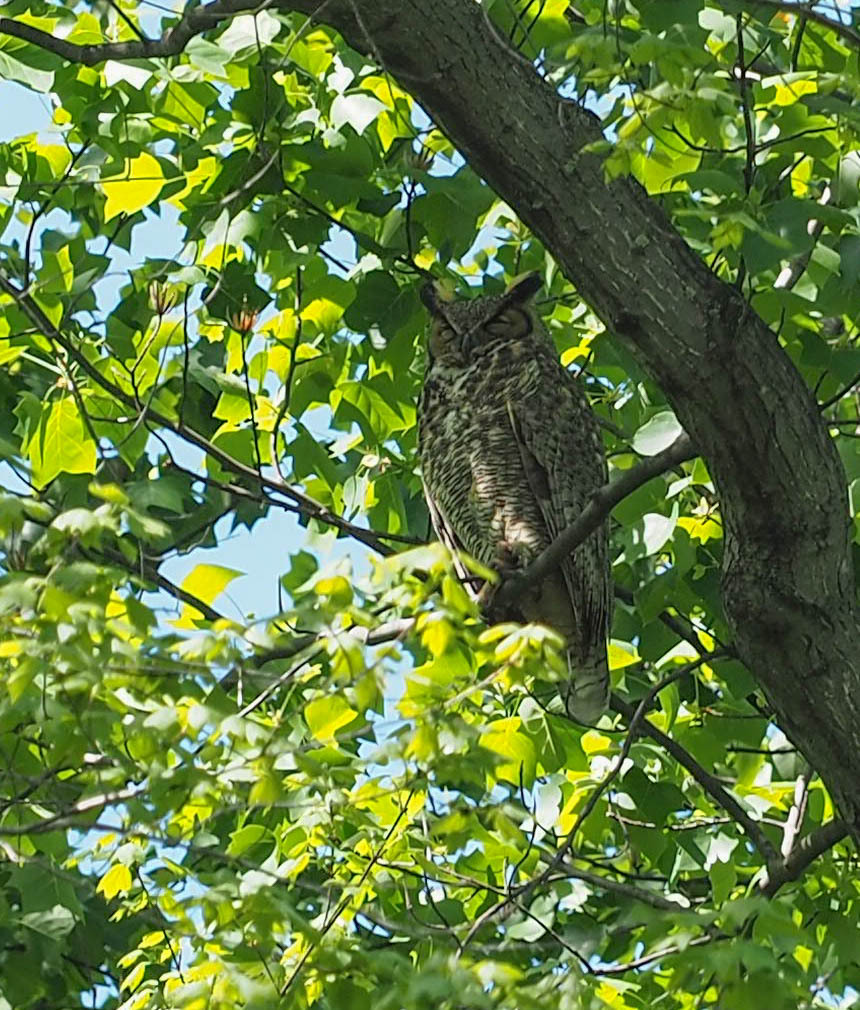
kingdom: Animalia
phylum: Chordata
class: Aves
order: Strigiformes
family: Strigidae
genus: Bubo
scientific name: Bubo virginianus
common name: Great horned owl
